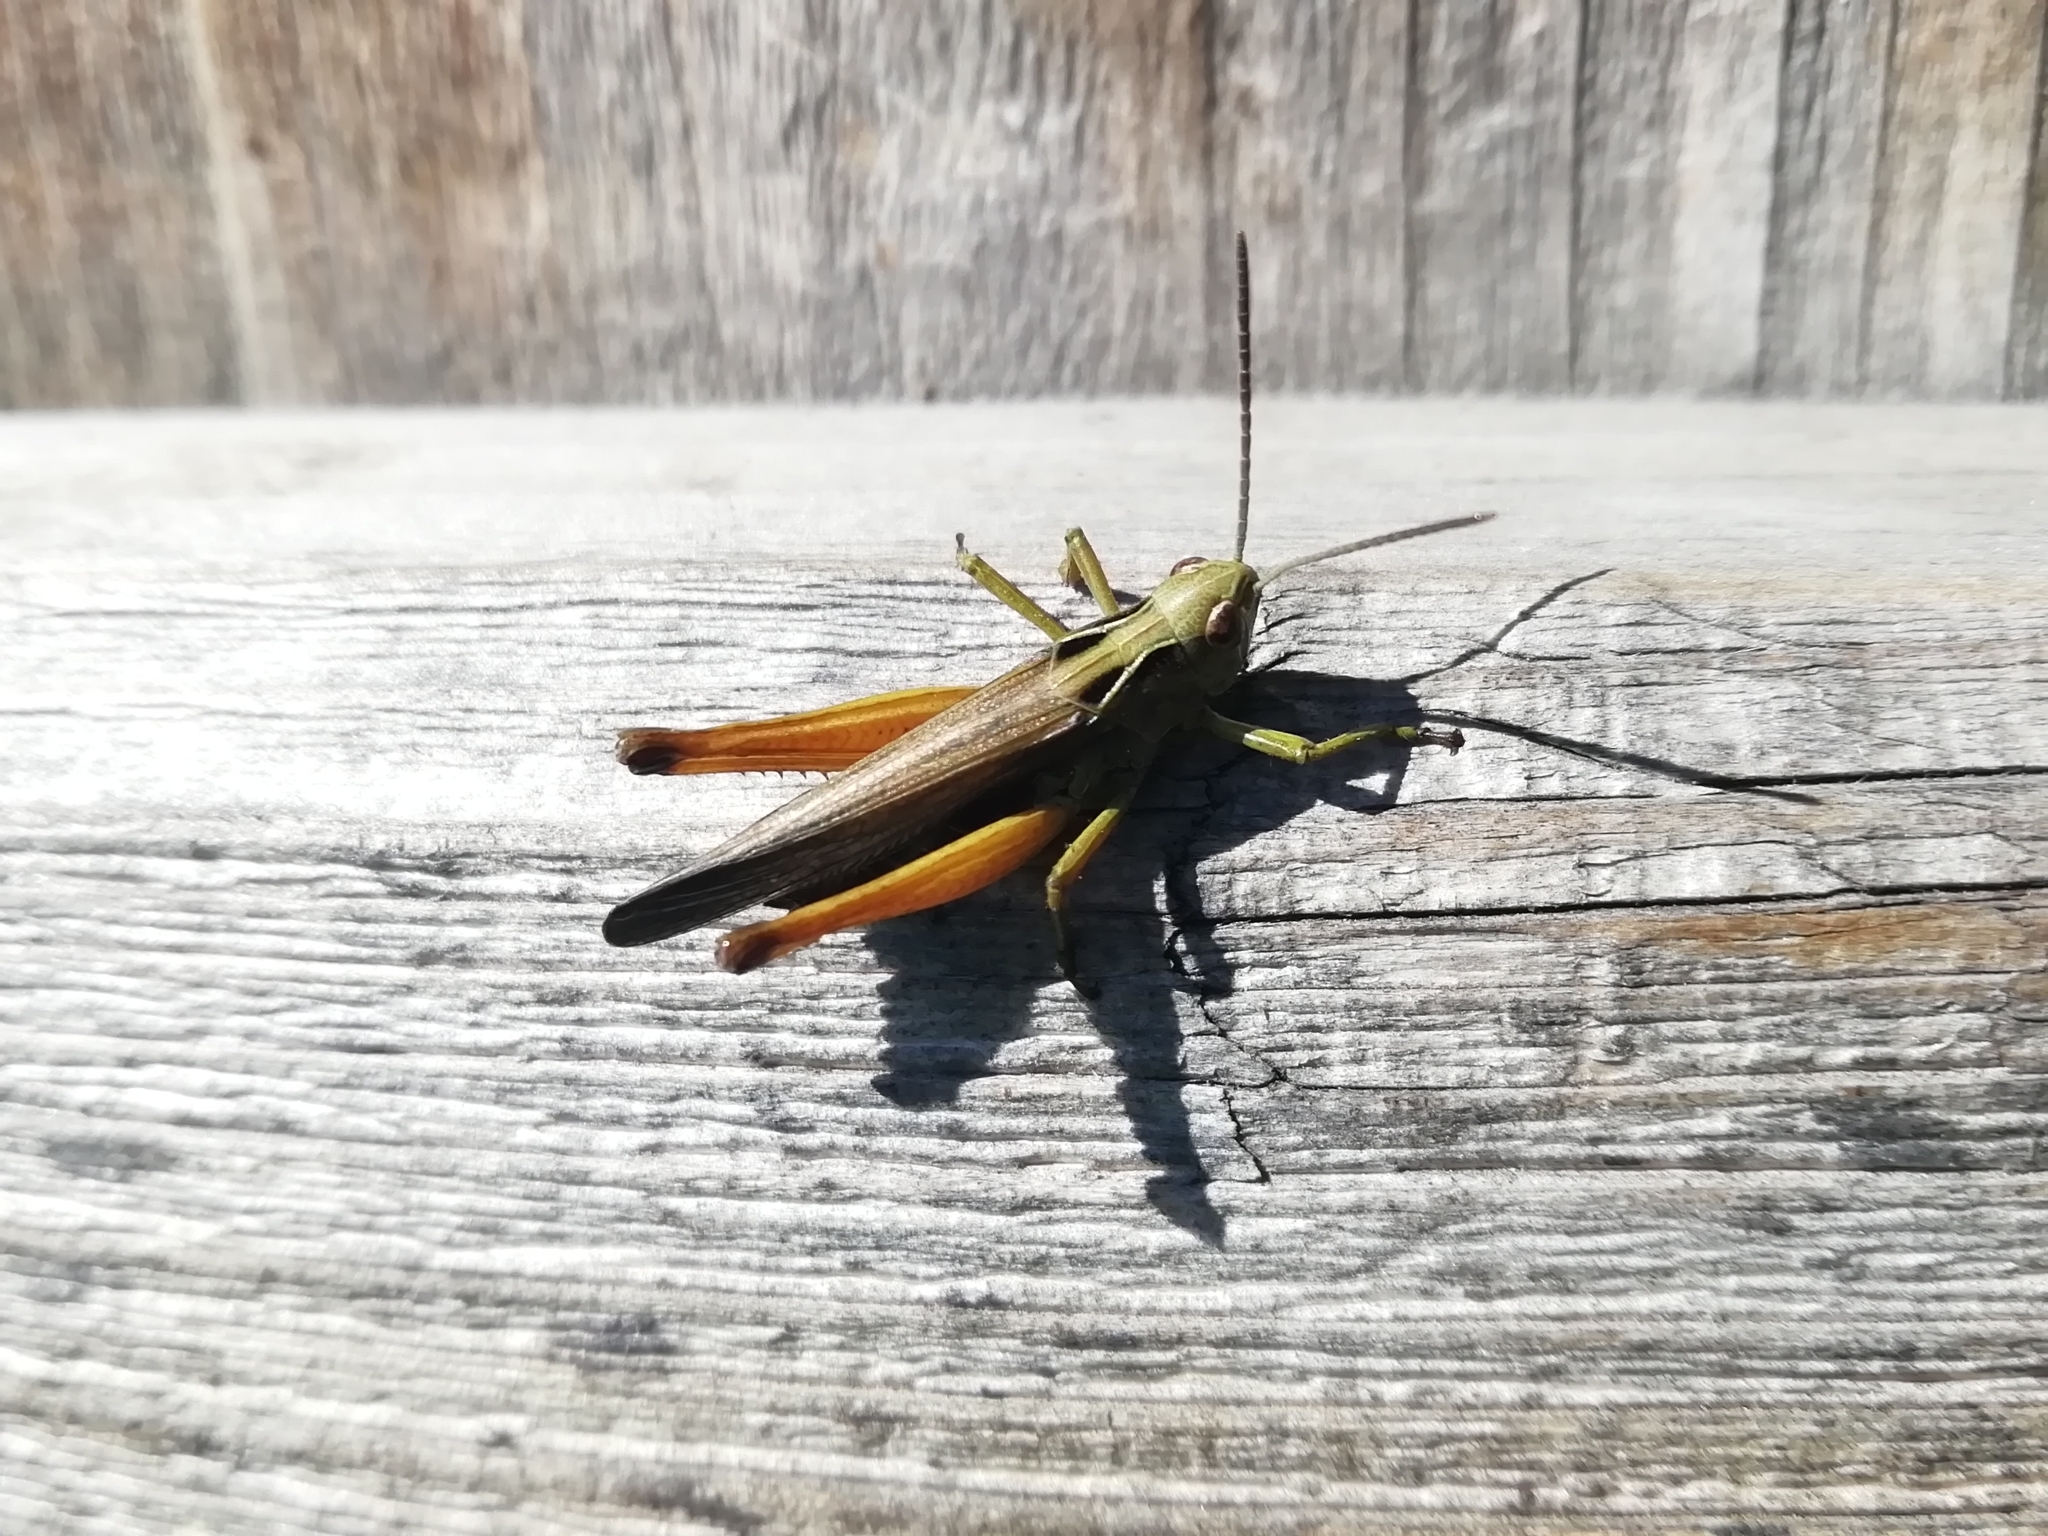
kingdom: Animalia
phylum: Arthropoda
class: Insecta
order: Orthoptera
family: Acrididae
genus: Omocestus
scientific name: Omocestus viridulus
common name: Common green grasshopper
